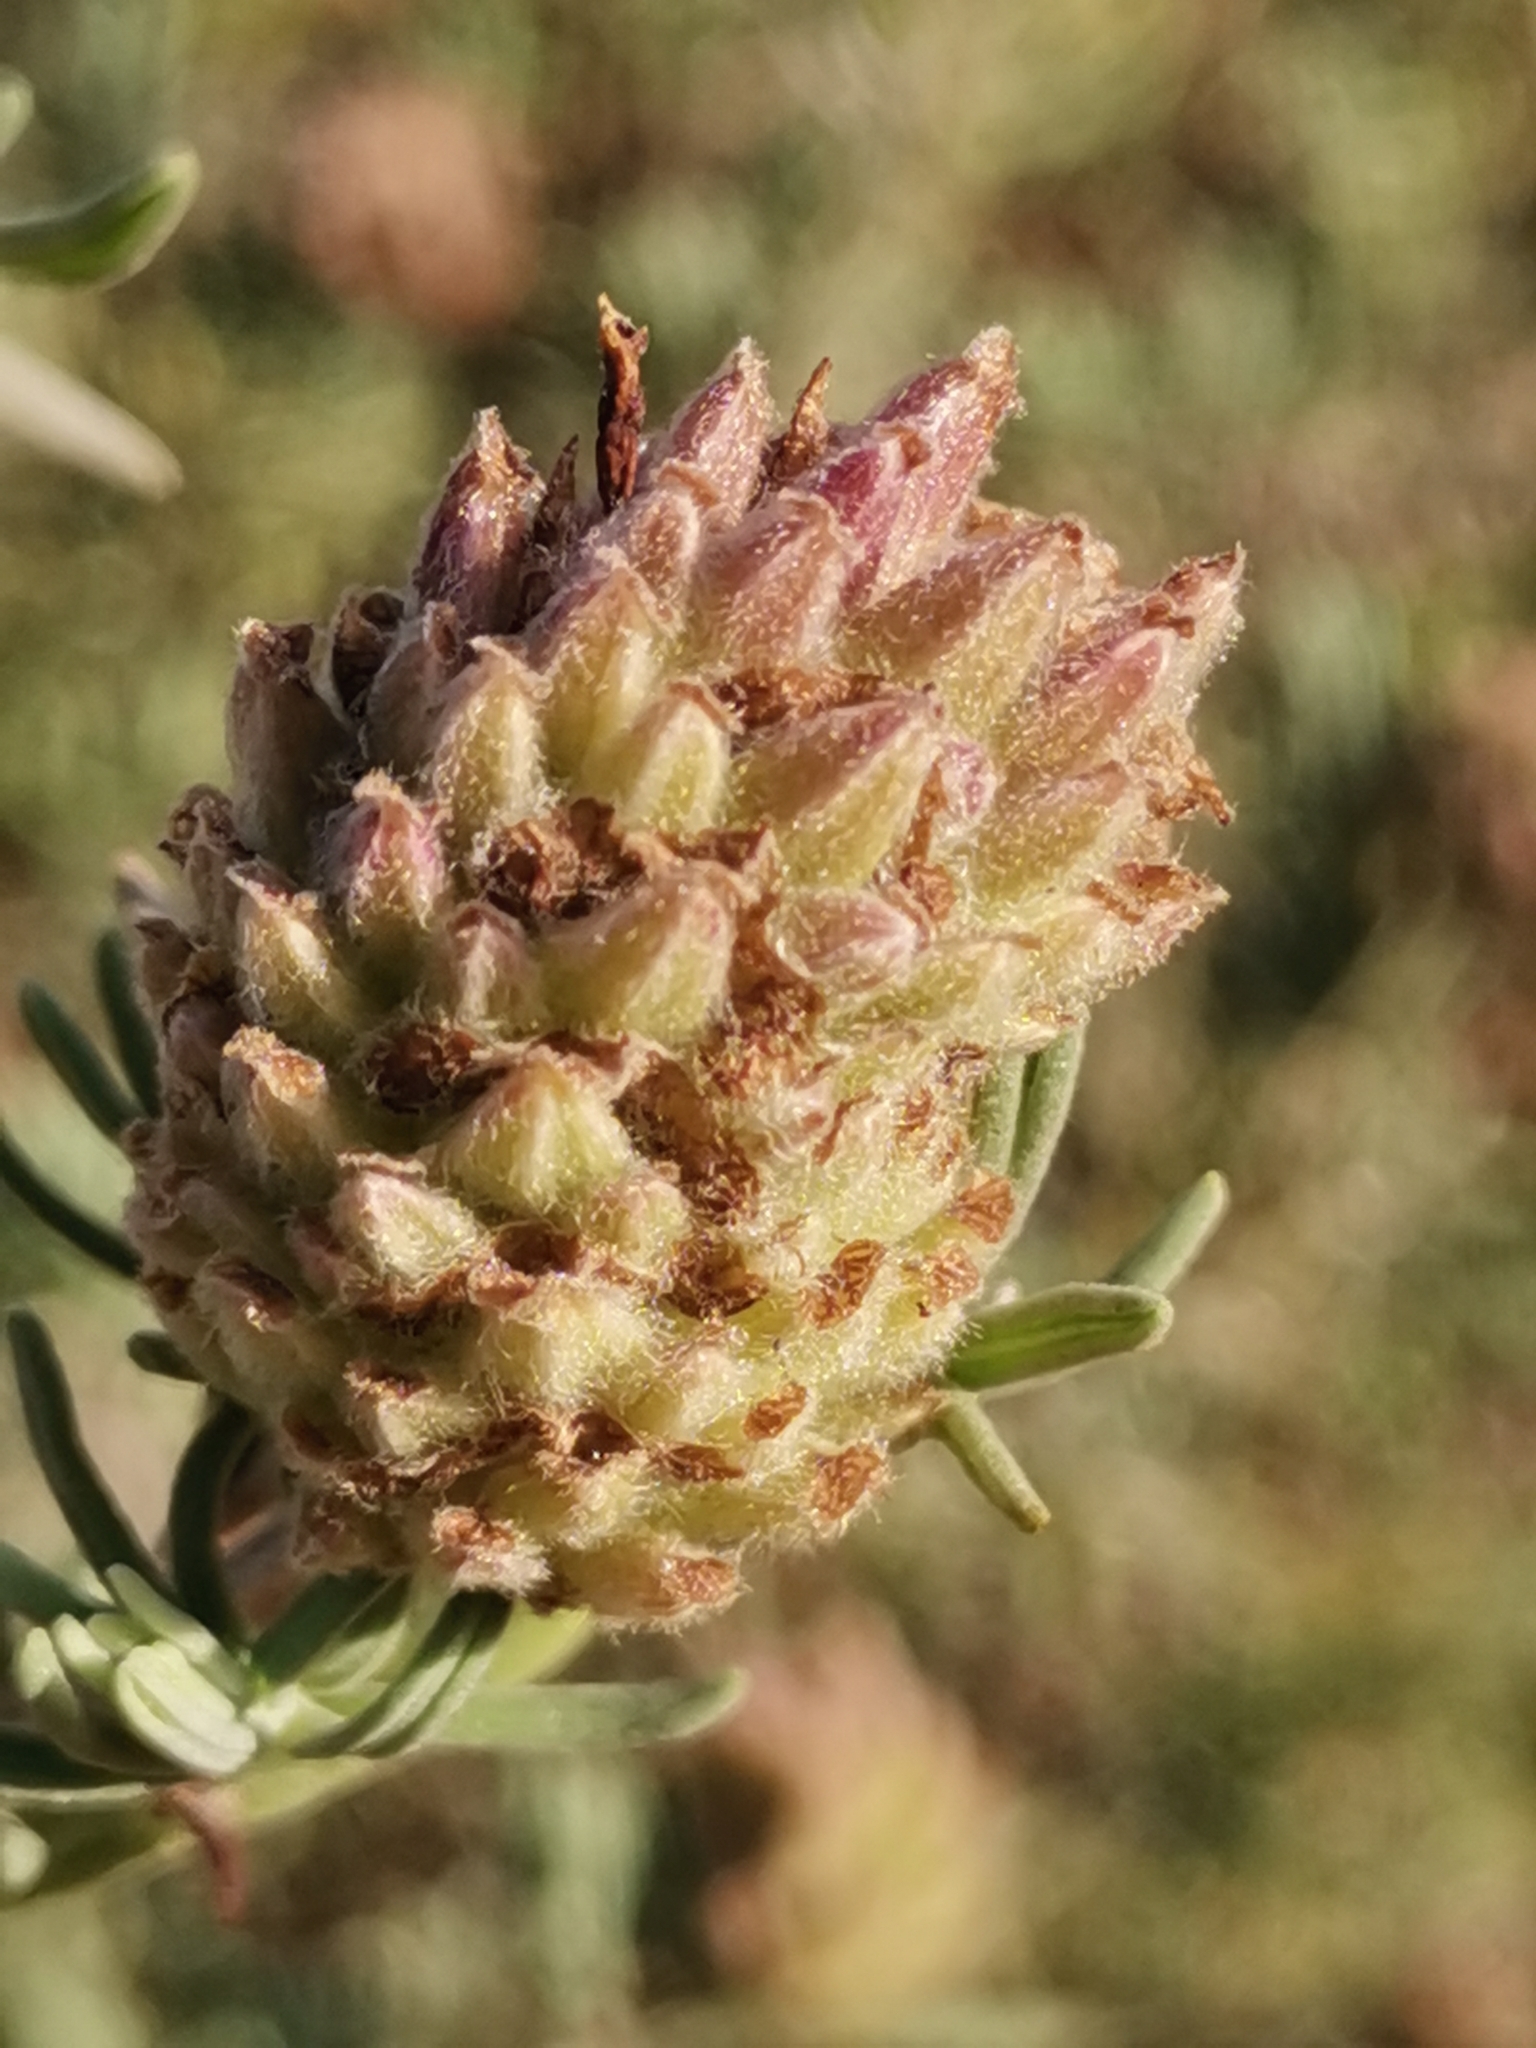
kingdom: Plantae
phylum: Tracheophyta
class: Magnoliopsida
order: Lamiales
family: Lamiaceae
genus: Lavandula
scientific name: Lavandula stoechas
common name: French lavender
